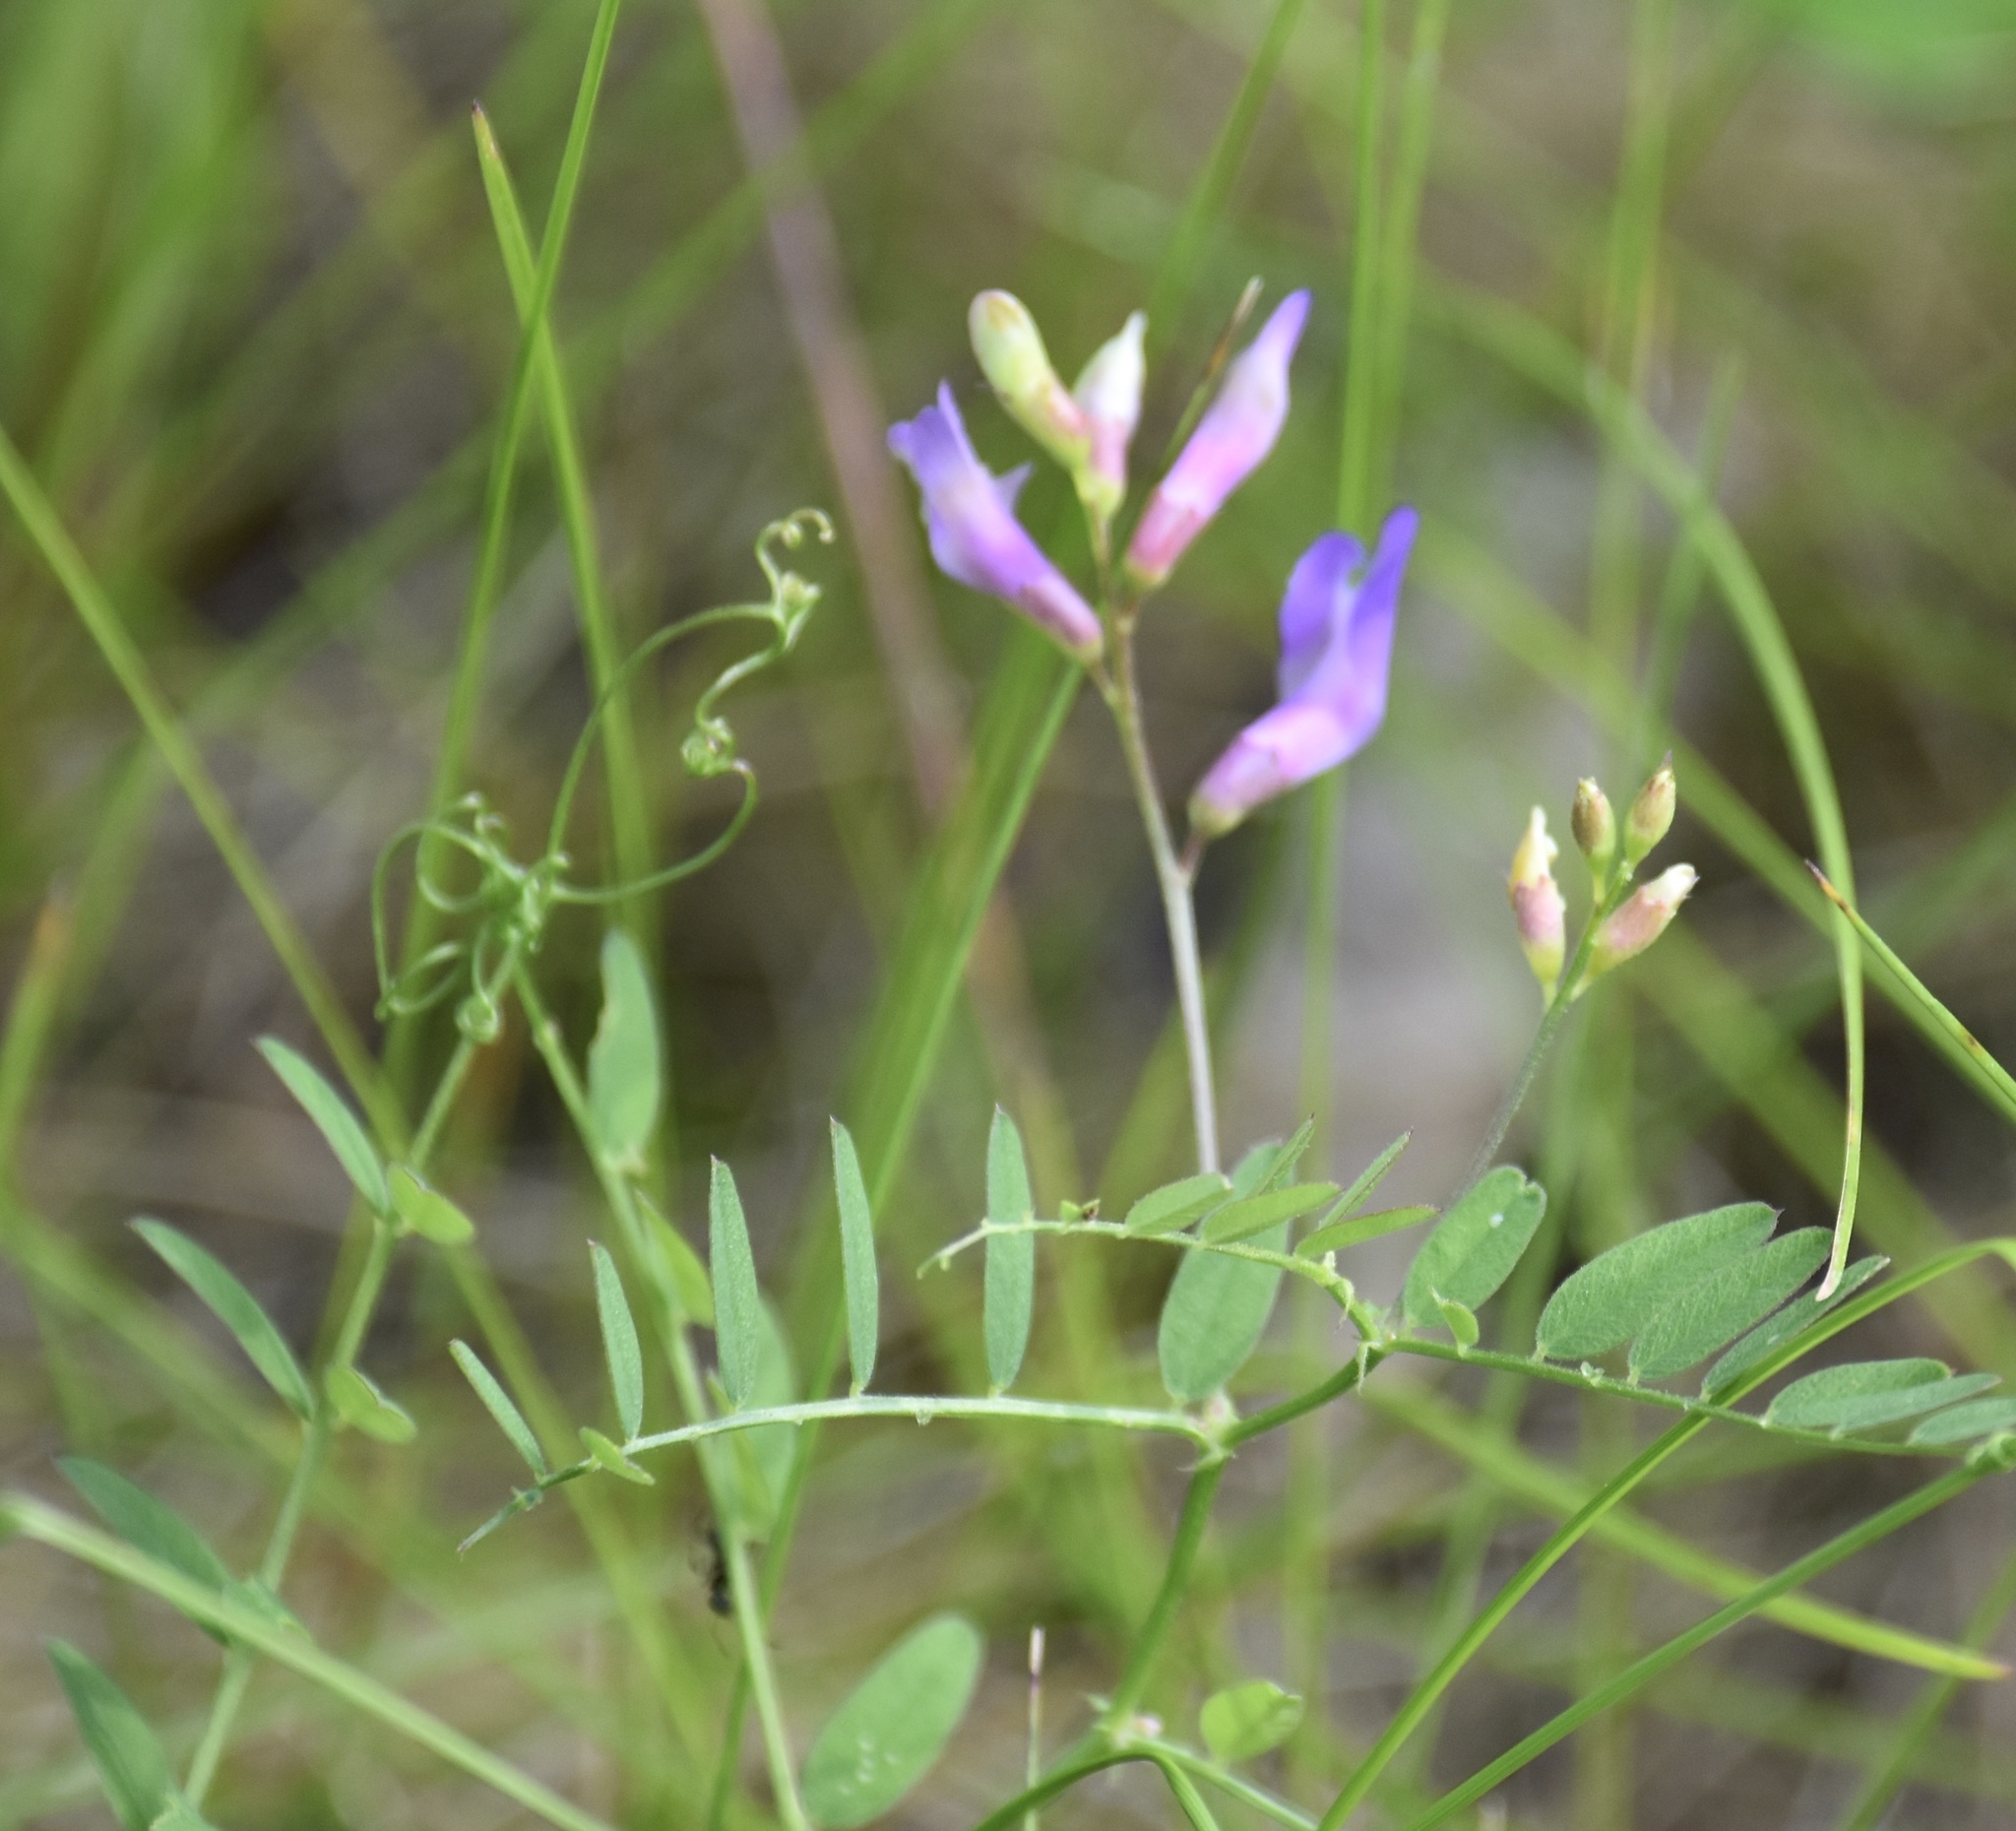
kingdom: Plantae
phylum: Tracheophyta
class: Magnoliopsida
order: Fabales
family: Fabaceae
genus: Vicia
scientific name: Vicia americana
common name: American vetch
